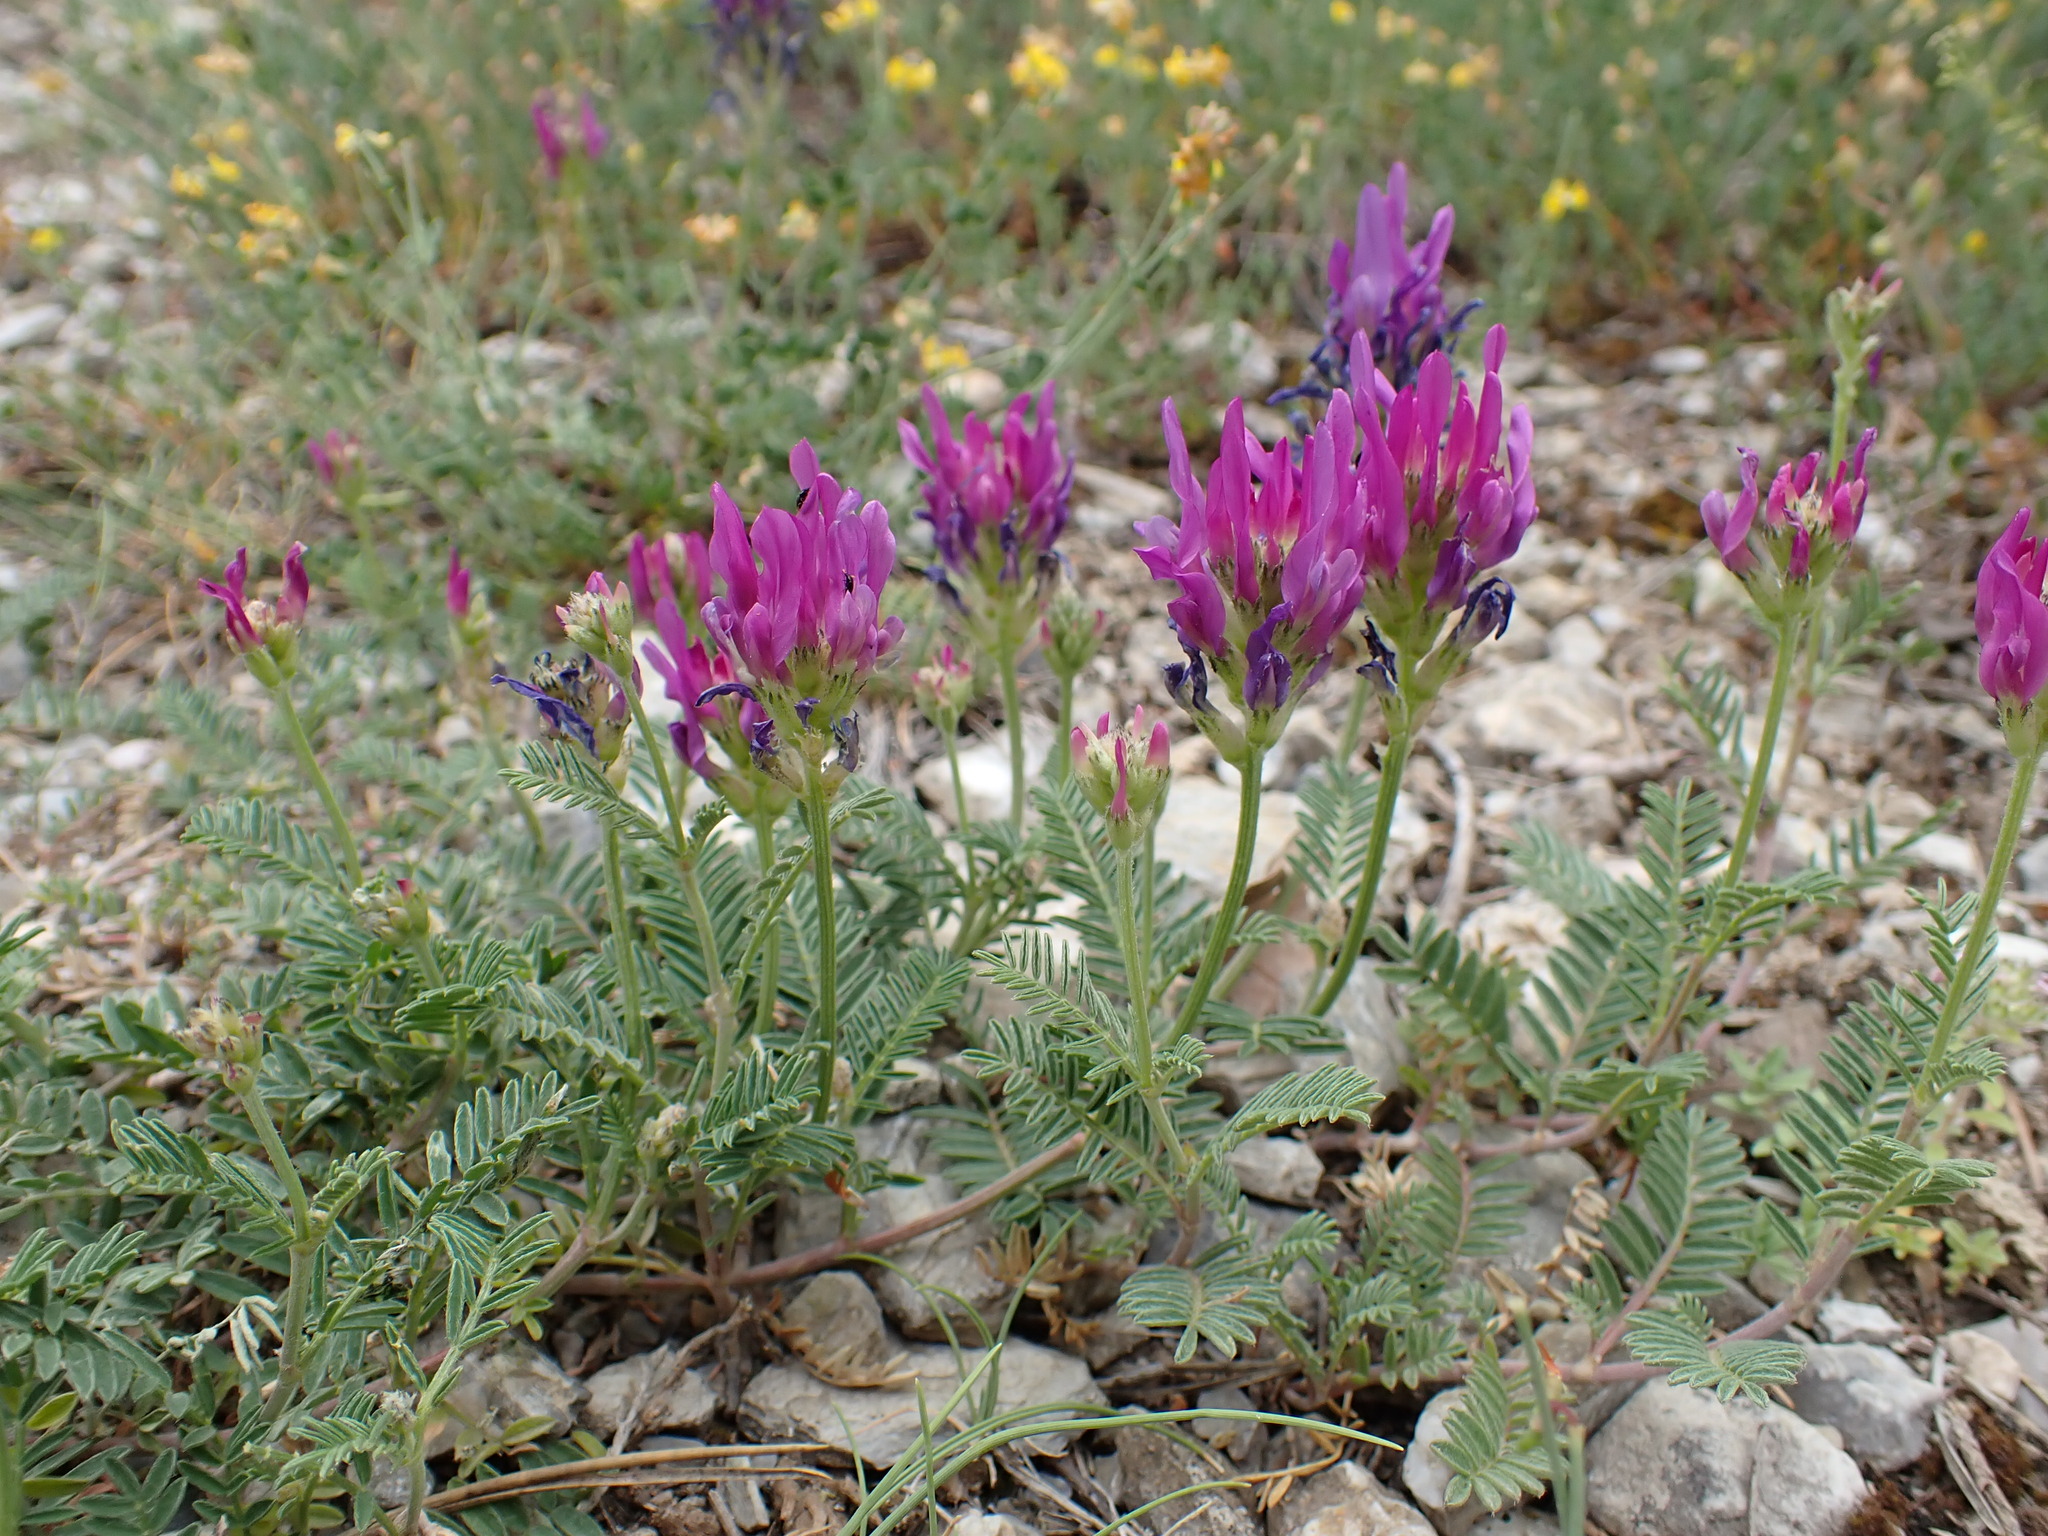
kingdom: Plantae
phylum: Tracheophyta
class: Magnoliopsida
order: Fabales
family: Fabaceae
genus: Astragalus
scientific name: Astragalus onobrychis
